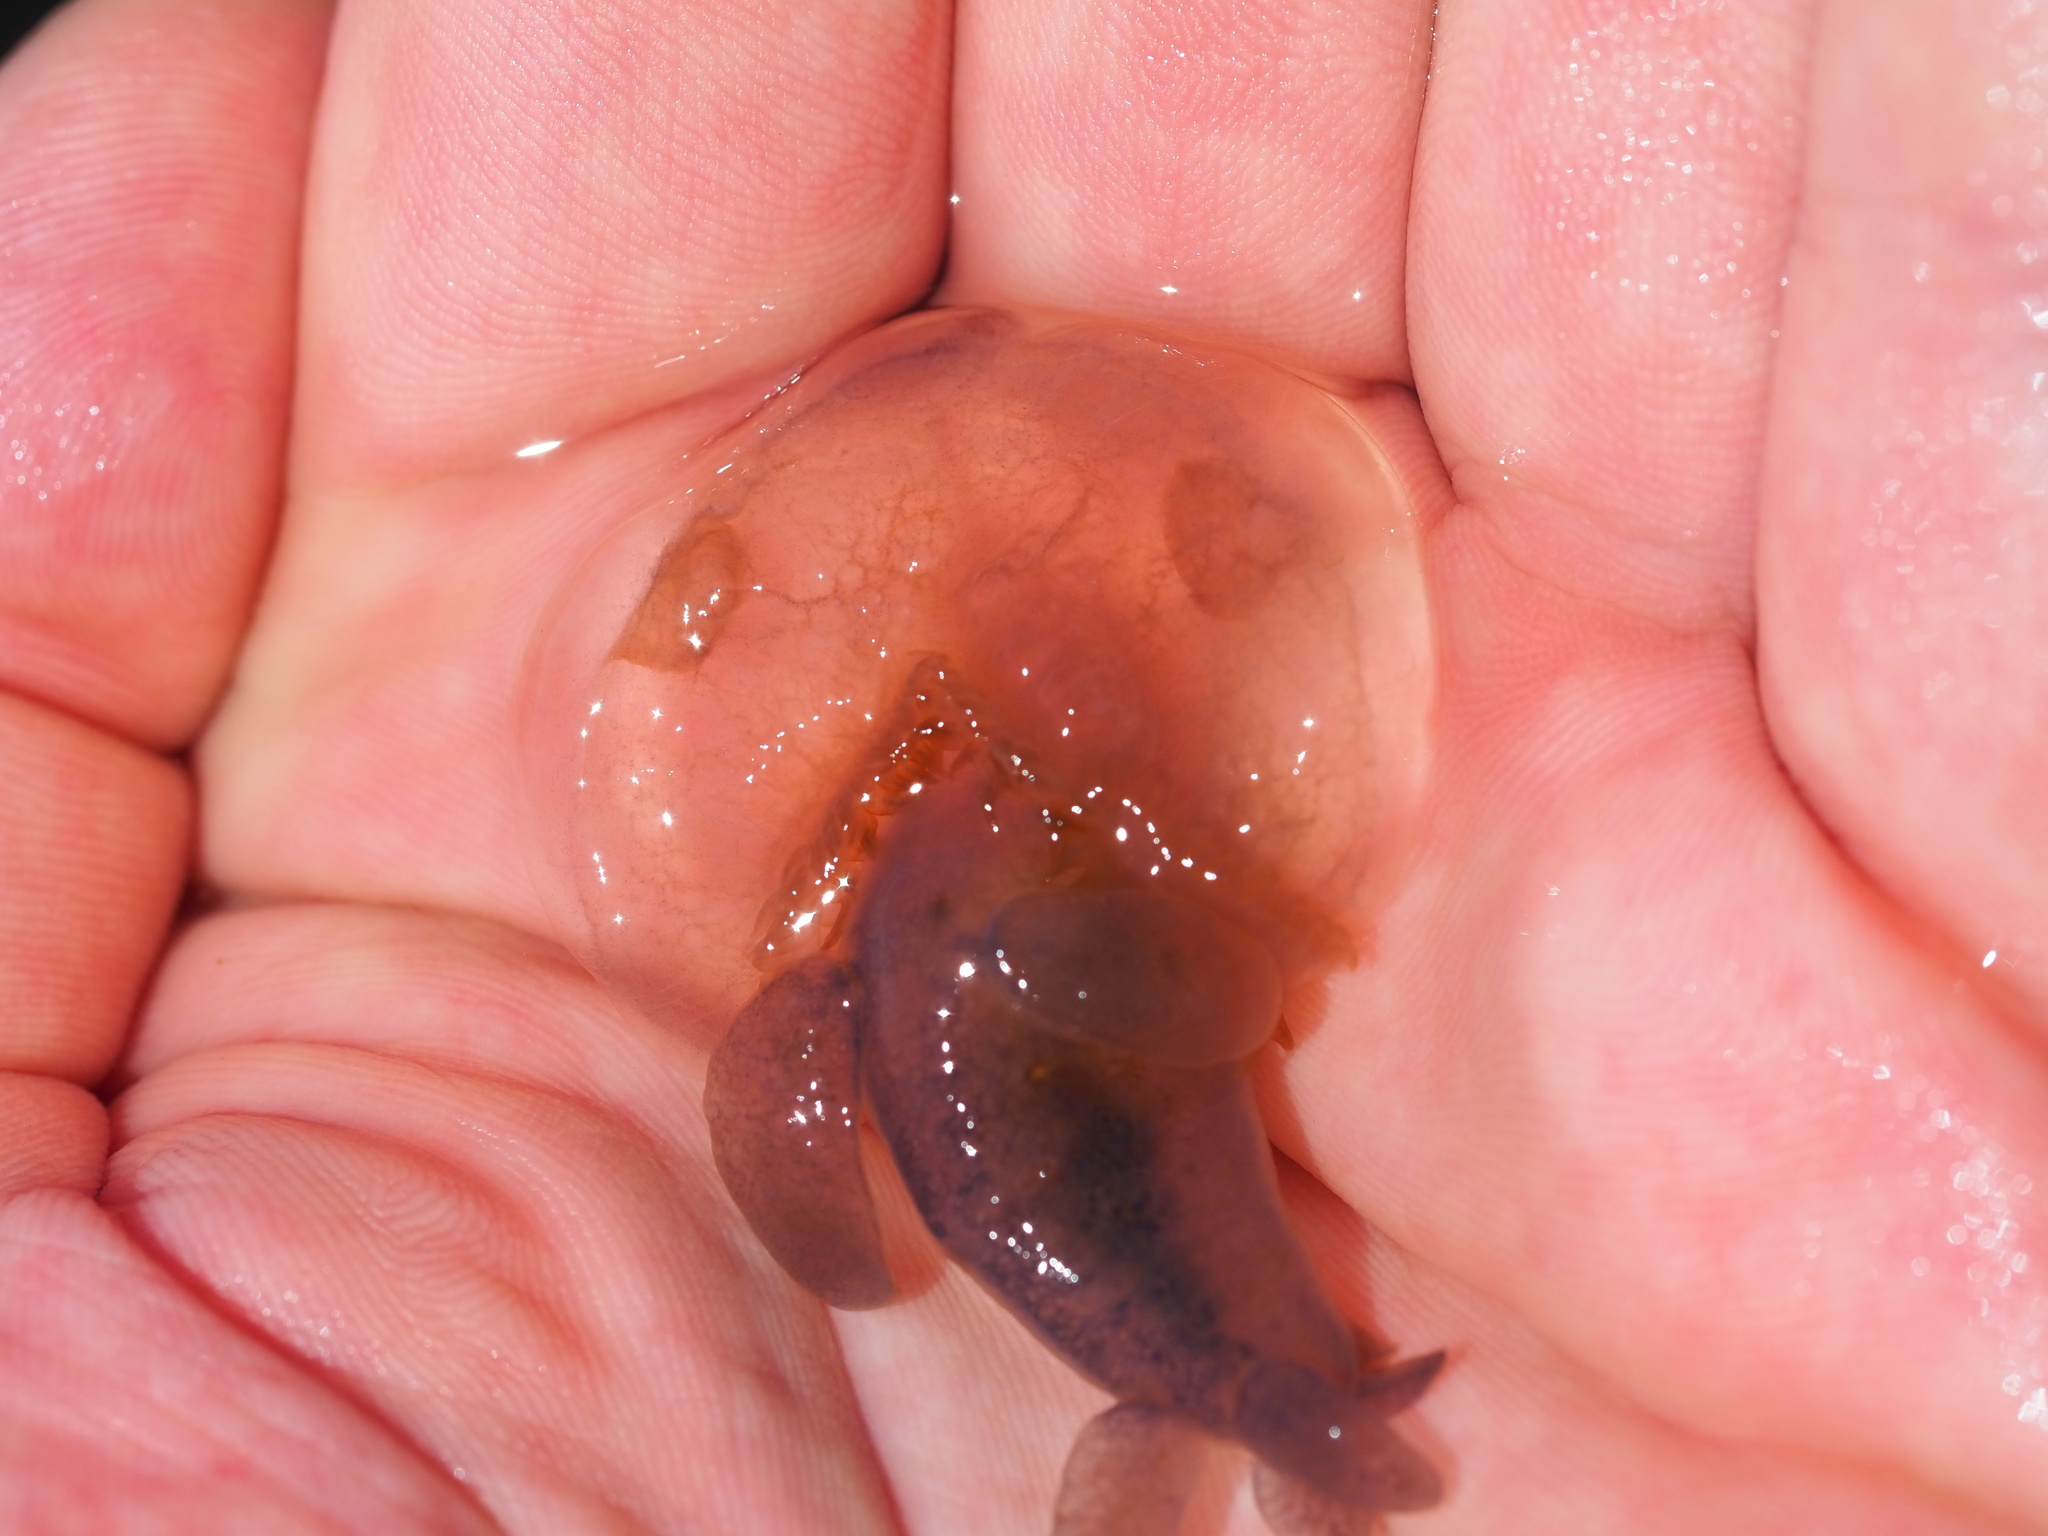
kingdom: Animalia
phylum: Mollusca
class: Gastropoda
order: Nudibranchia
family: Tethydidae
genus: Melibe
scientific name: Melibe leonina
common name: Lion nudibranch
